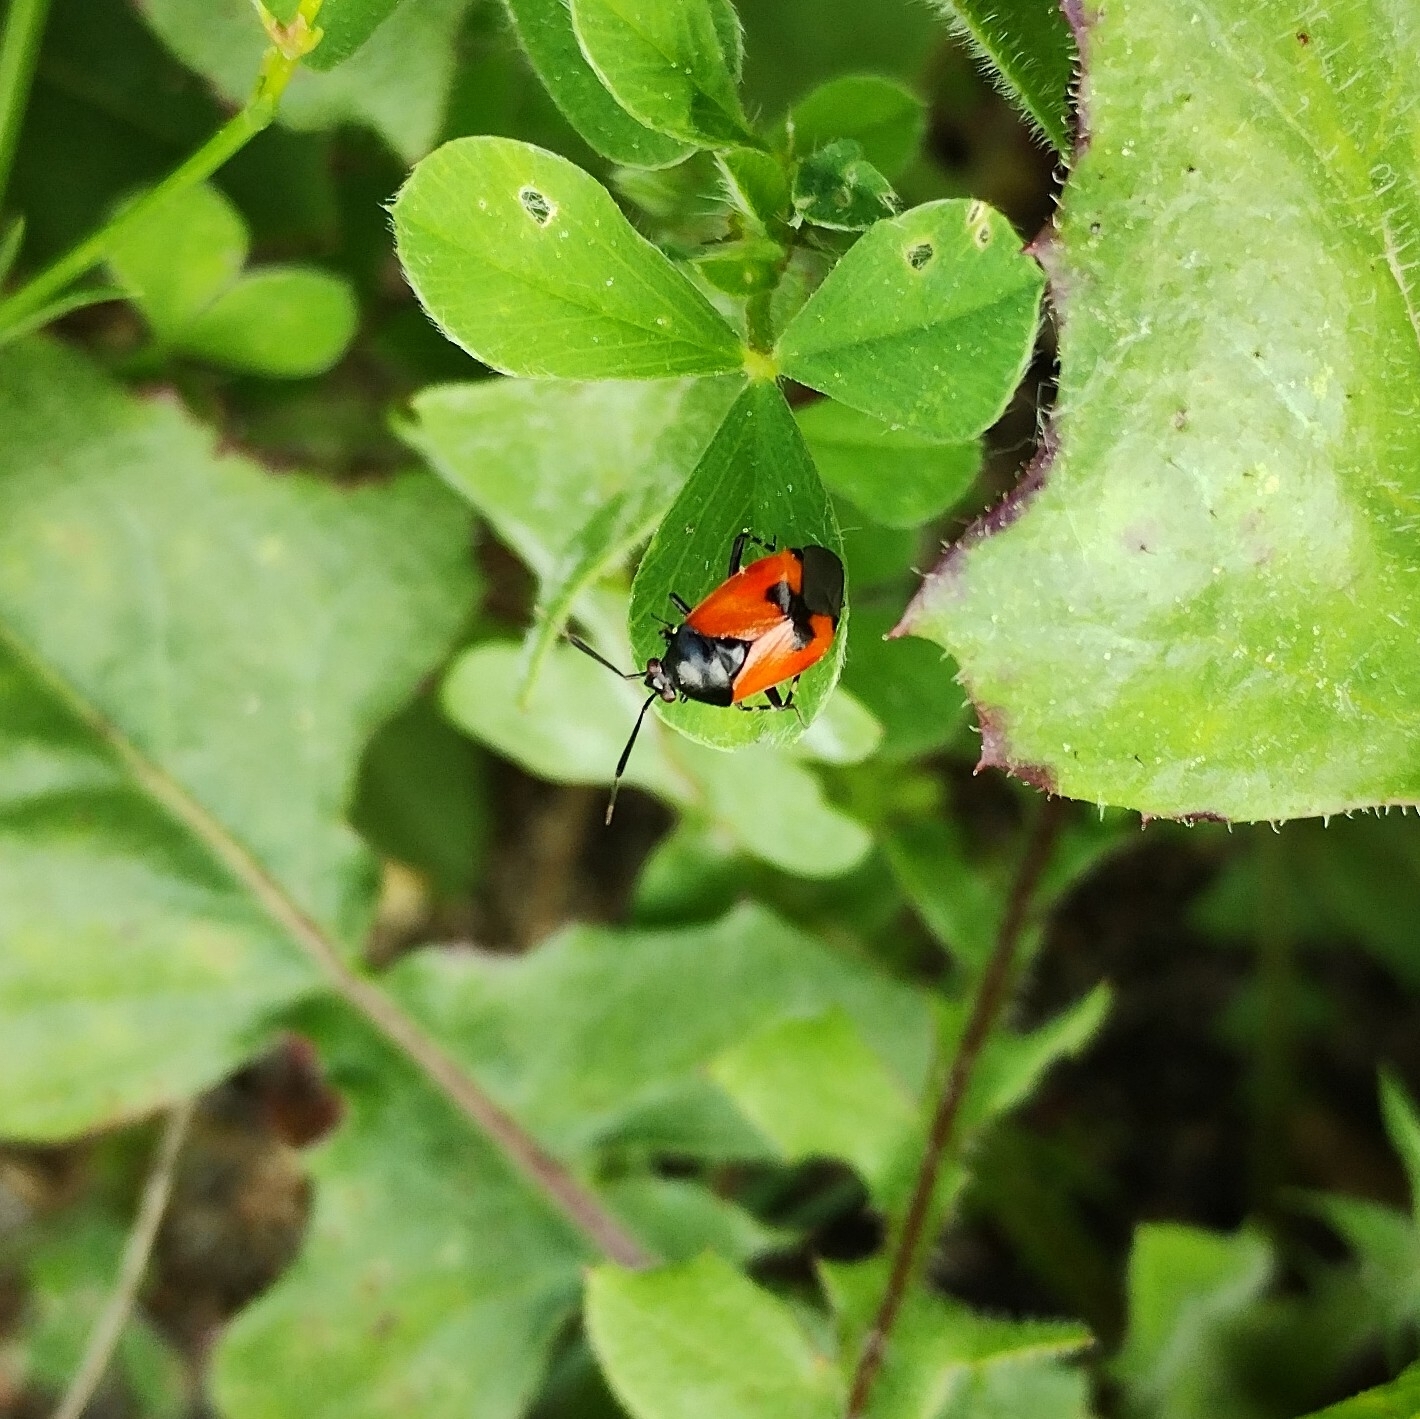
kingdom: Animalia
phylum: Arthropoda
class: Insecta
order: Hemiptera
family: Miridae
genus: Deraeocoris
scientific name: Deraeocoris rutilus
